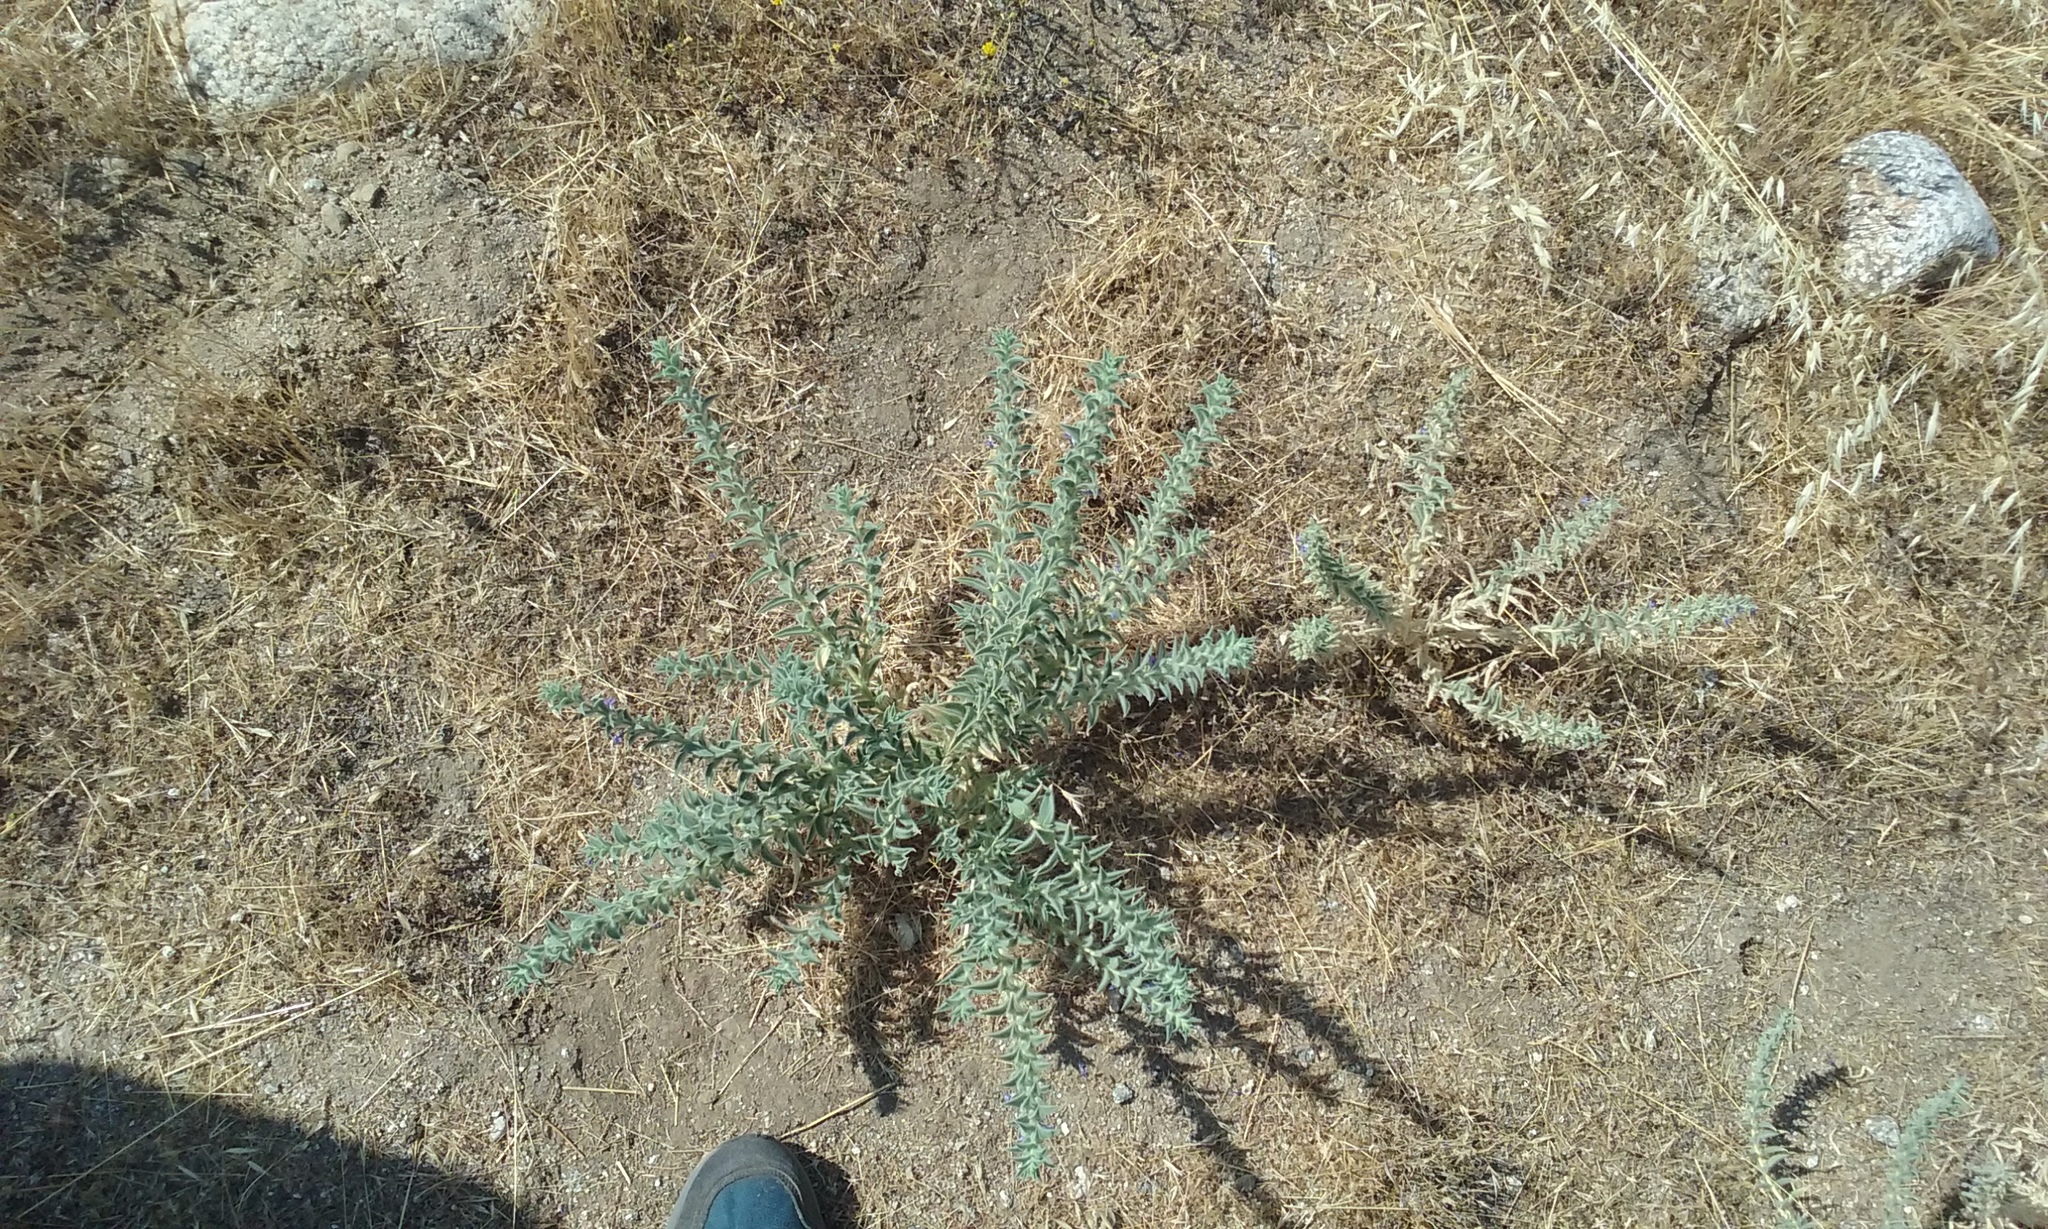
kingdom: Plantae
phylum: Tracheophyta
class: Magnoliopsida
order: Lamiales
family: Lamiaceae
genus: Trichostema
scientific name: Trichostema lanceolatum
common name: Vinegar-weed
